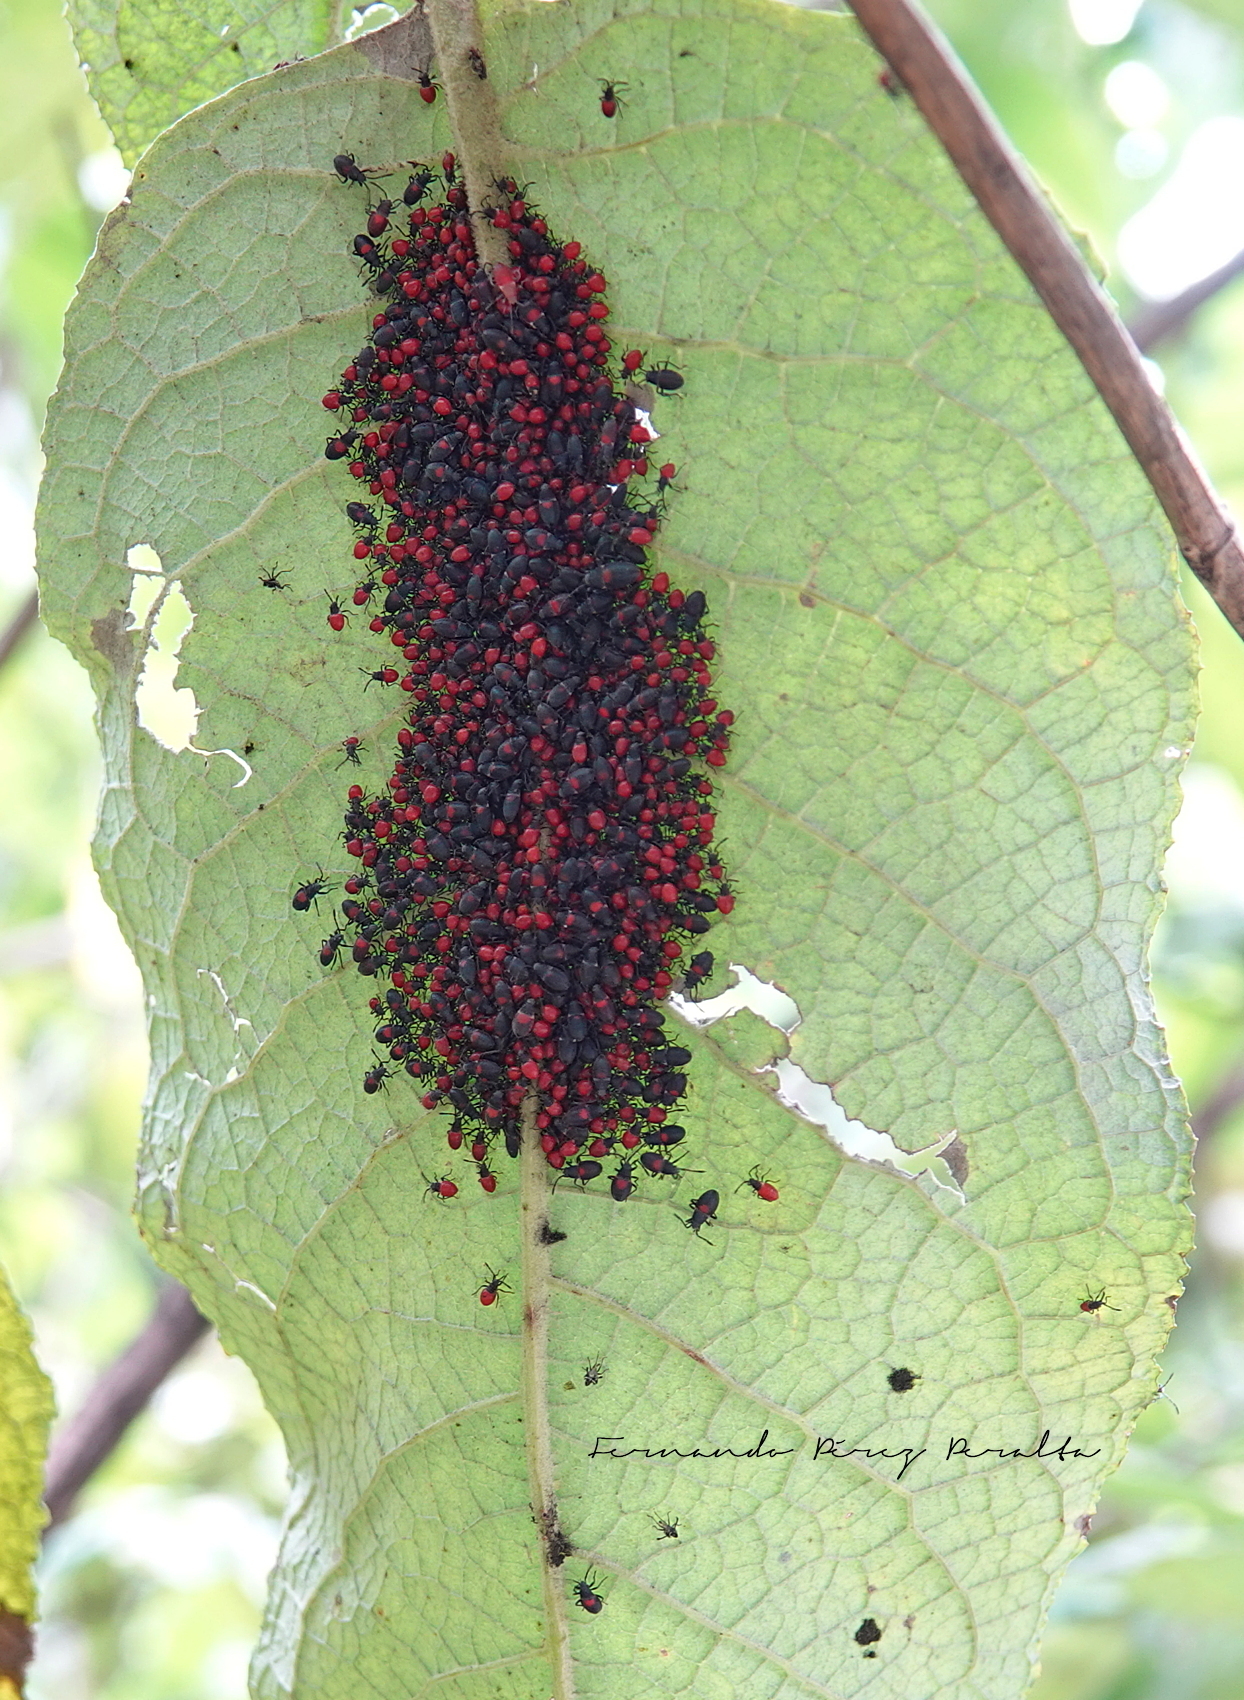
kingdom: Animalia
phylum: Arthropoda
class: Insecta
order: Hemiptera
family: Largidae
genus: Stenomacra
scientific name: Stenomacra marginella
